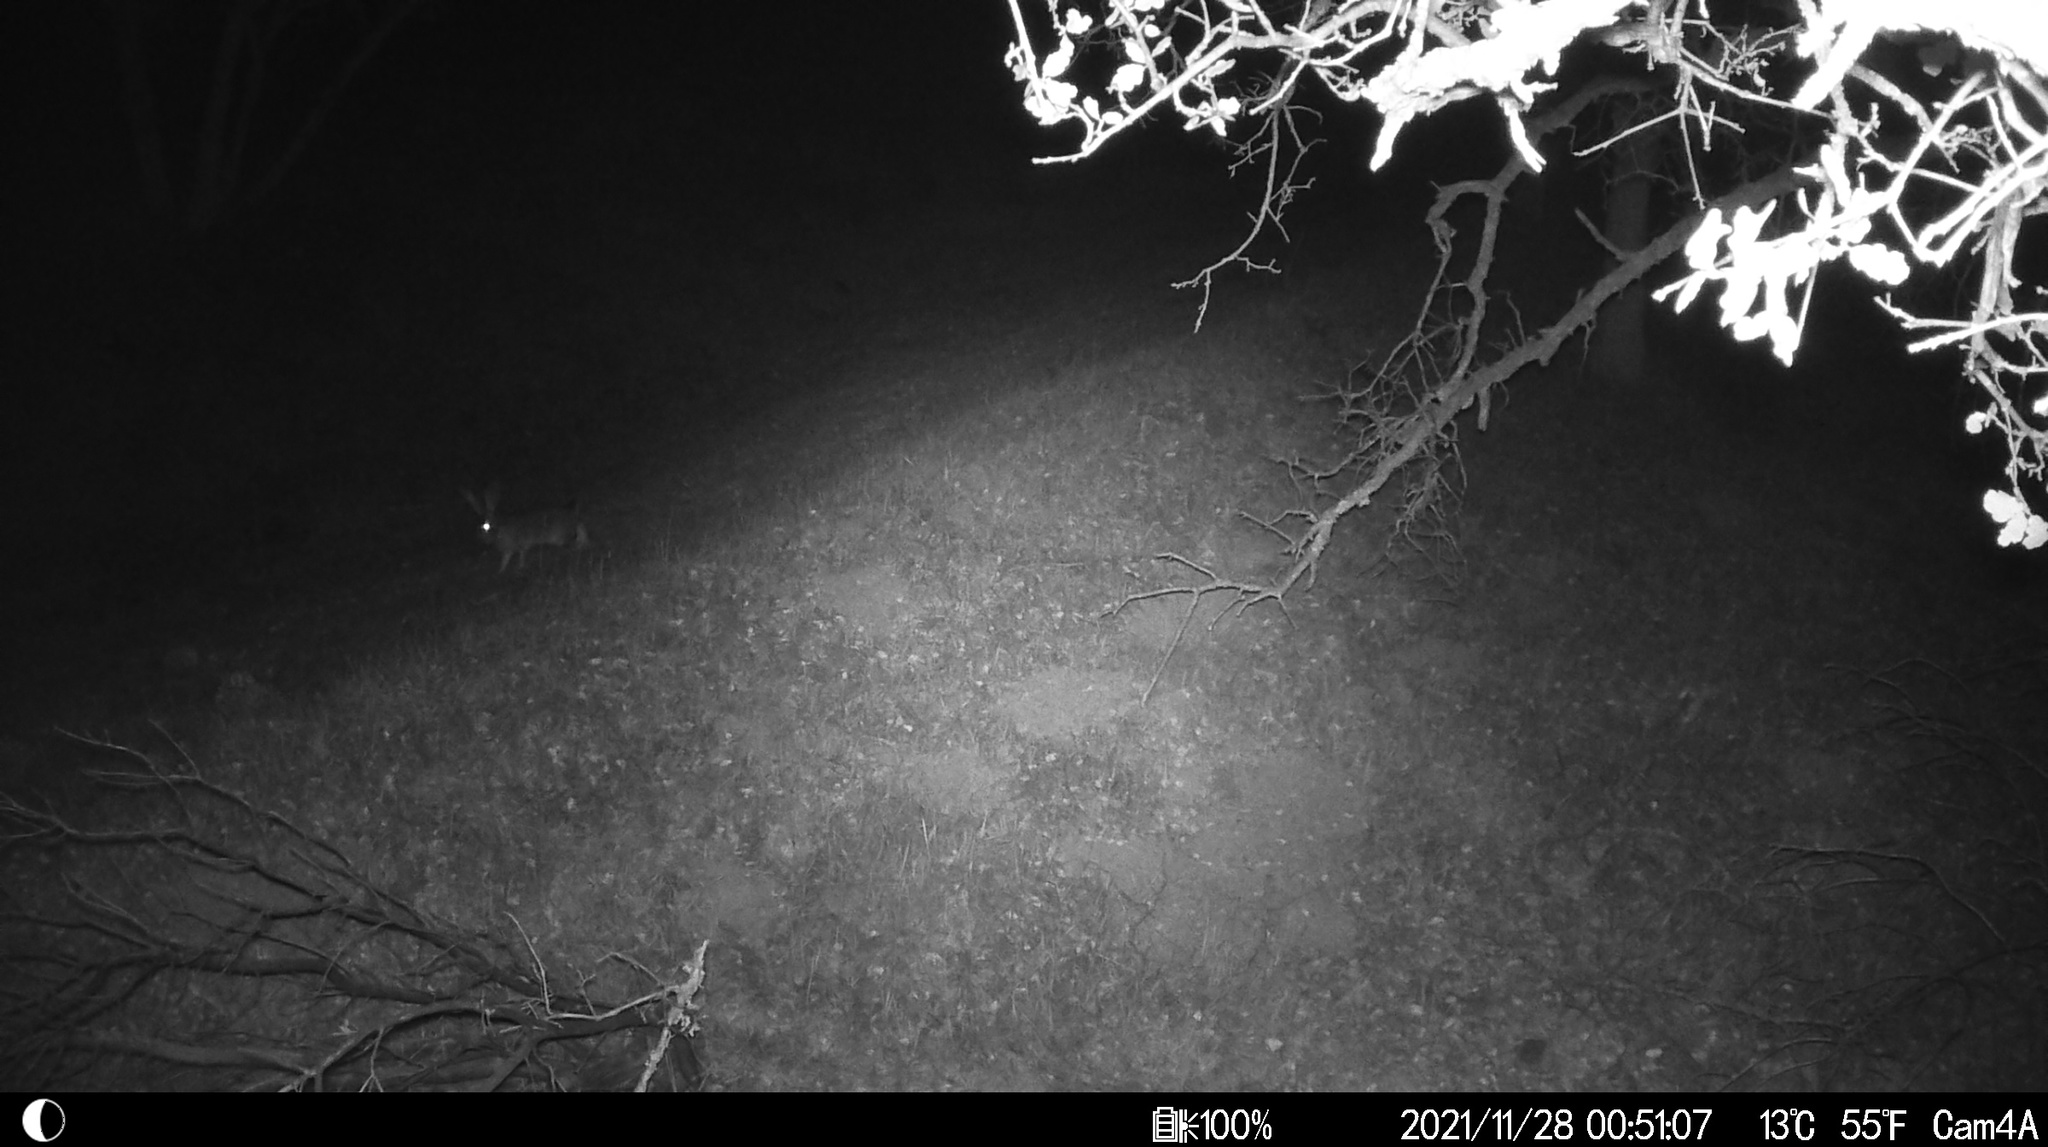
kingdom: Animalia
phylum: Chordata
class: Mammalia
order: Lagomorpha
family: Leporidae
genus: Lepus
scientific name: Lepus californicus
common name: Black-tailed jackrabbit
